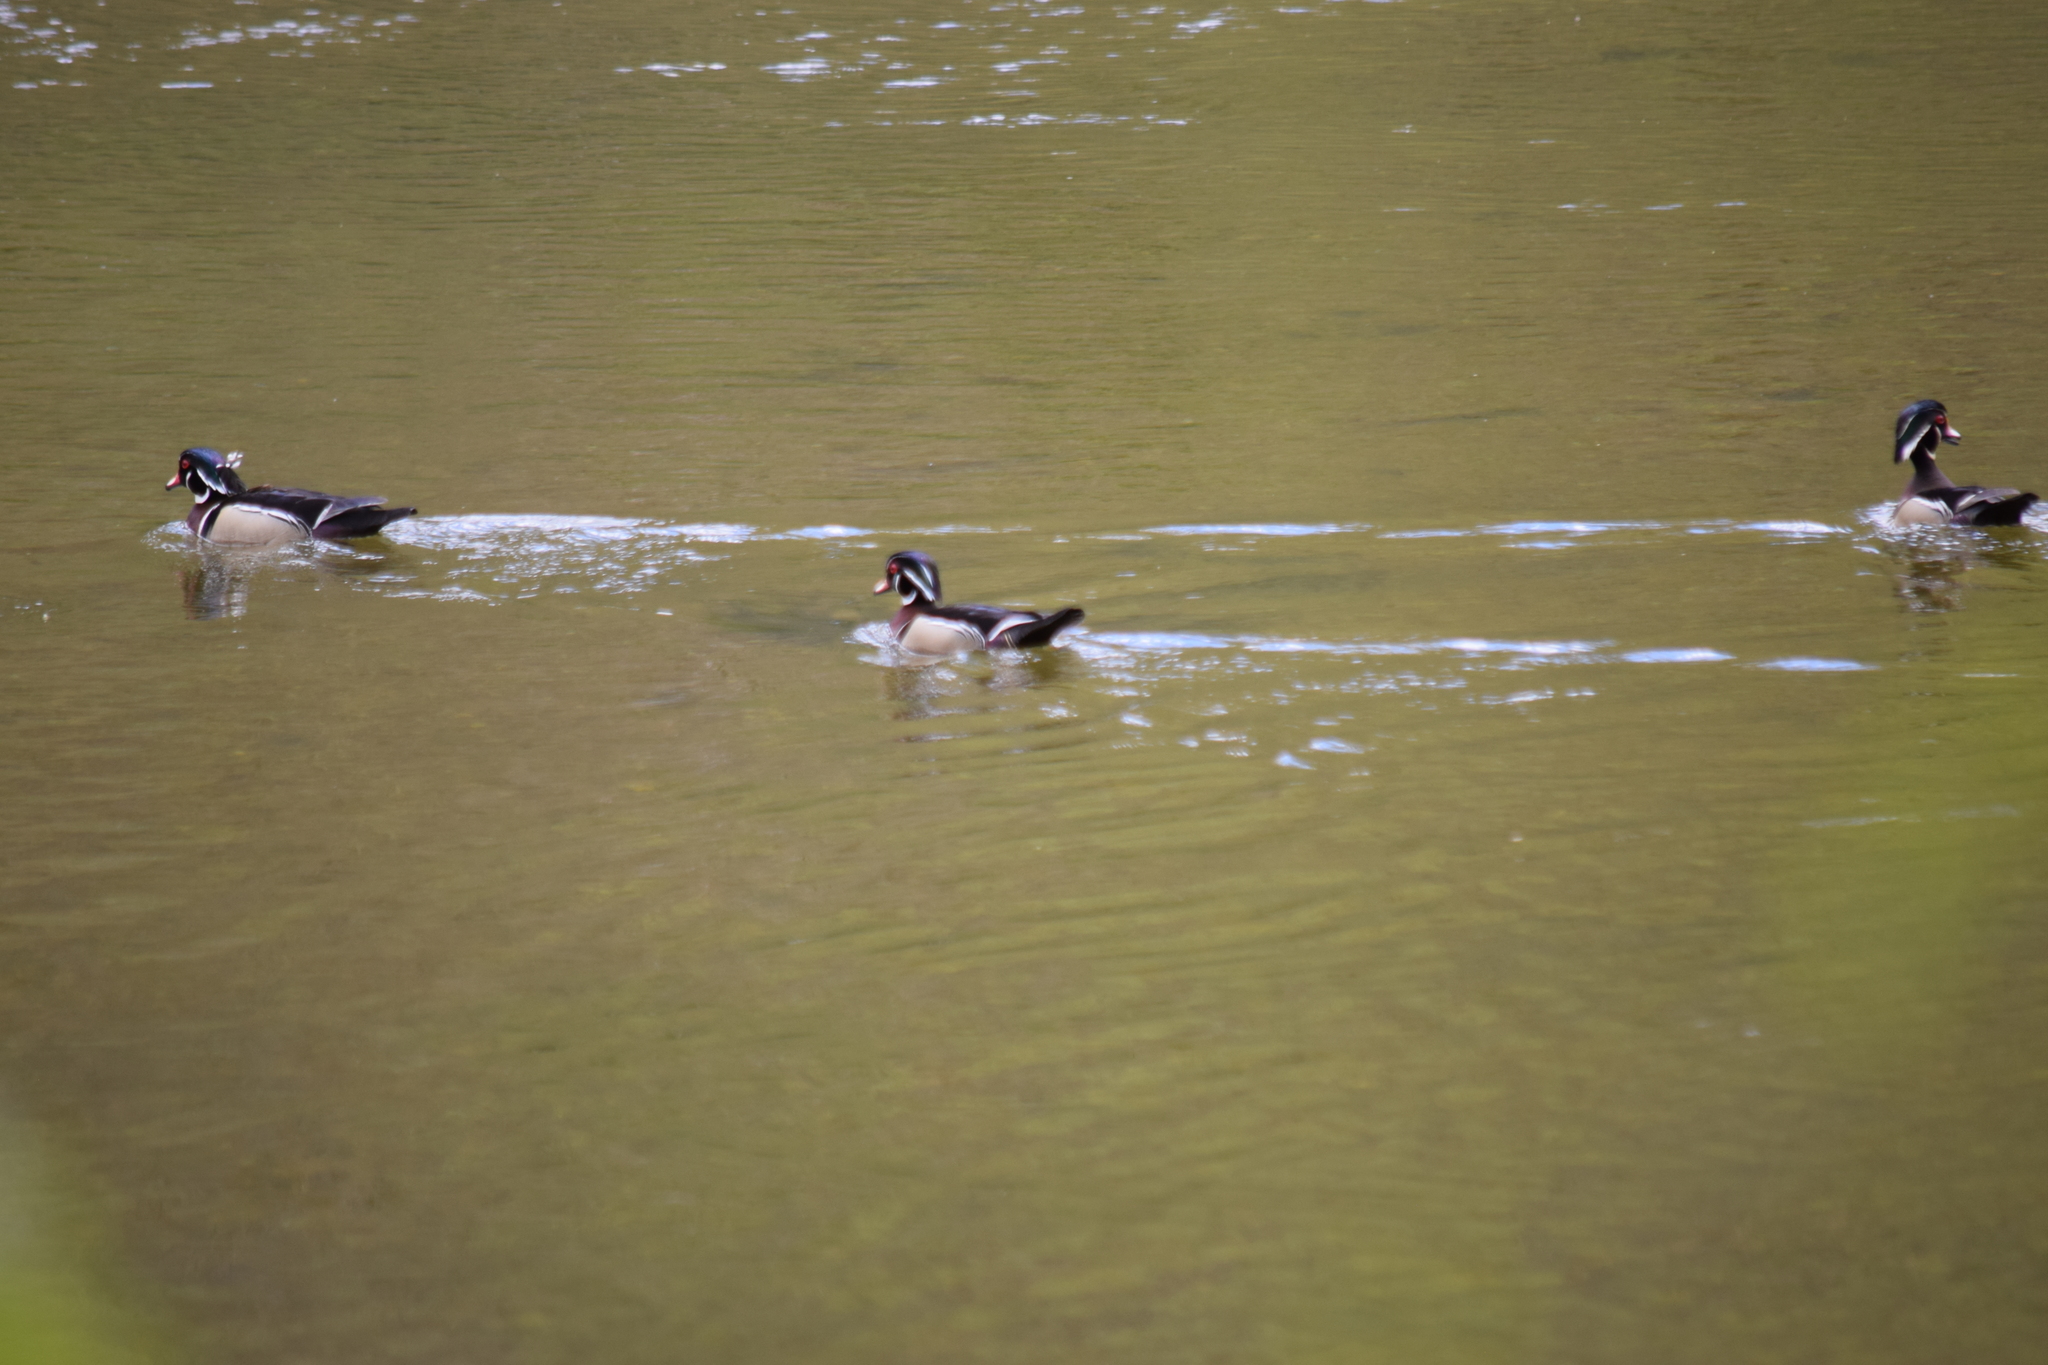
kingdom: Animalia
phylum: Chordata
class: Aves
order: Anseriformes
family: Anatidae
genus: Aix
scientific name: Aix sponsa
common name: Wood duck
